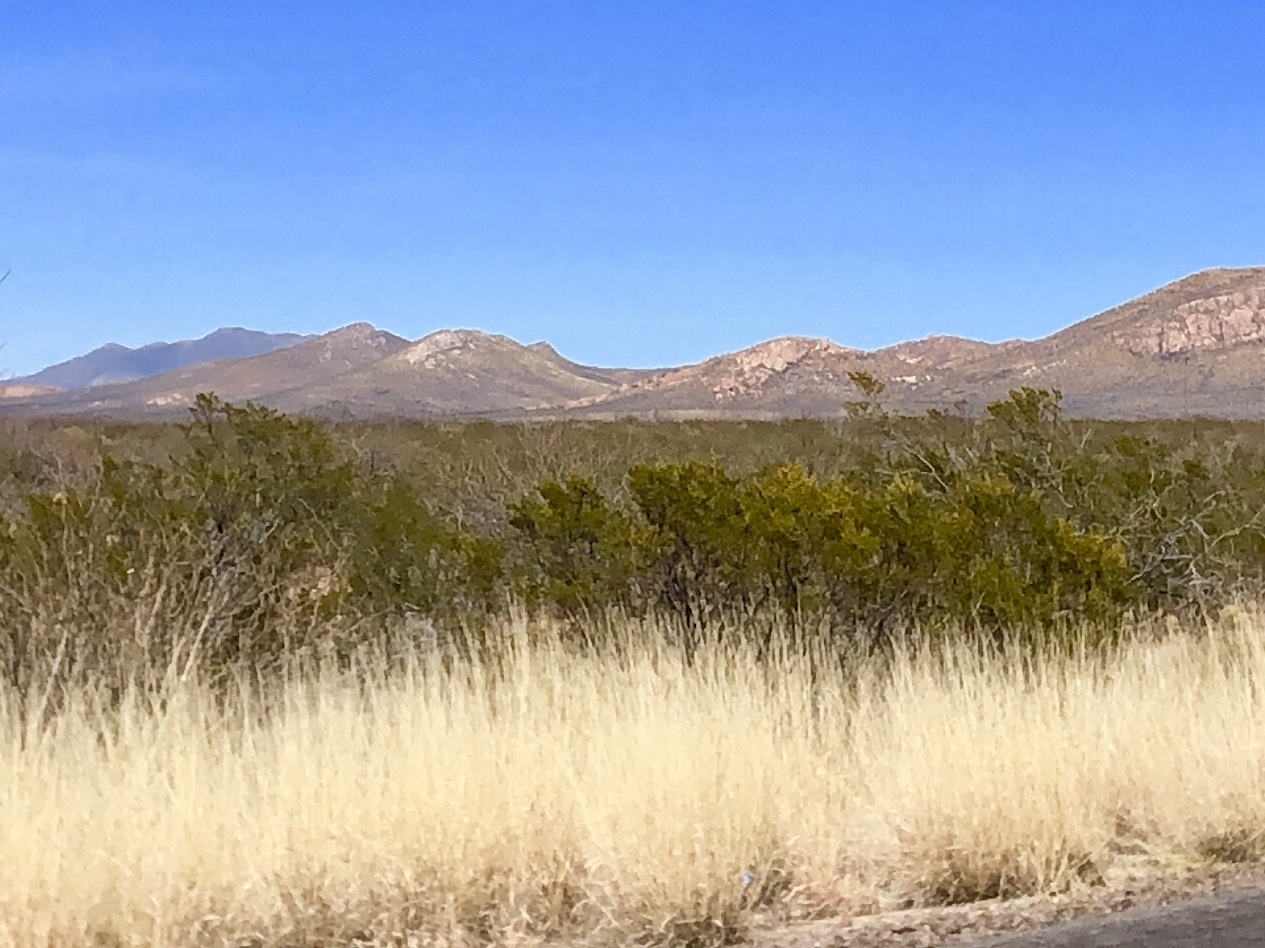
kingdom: Plantae
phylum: Tracheophyta
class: Magnoliopsida
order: Zygophyllales
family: Zygophyllaceae
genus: Larrea
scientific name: Larrea tridentata
